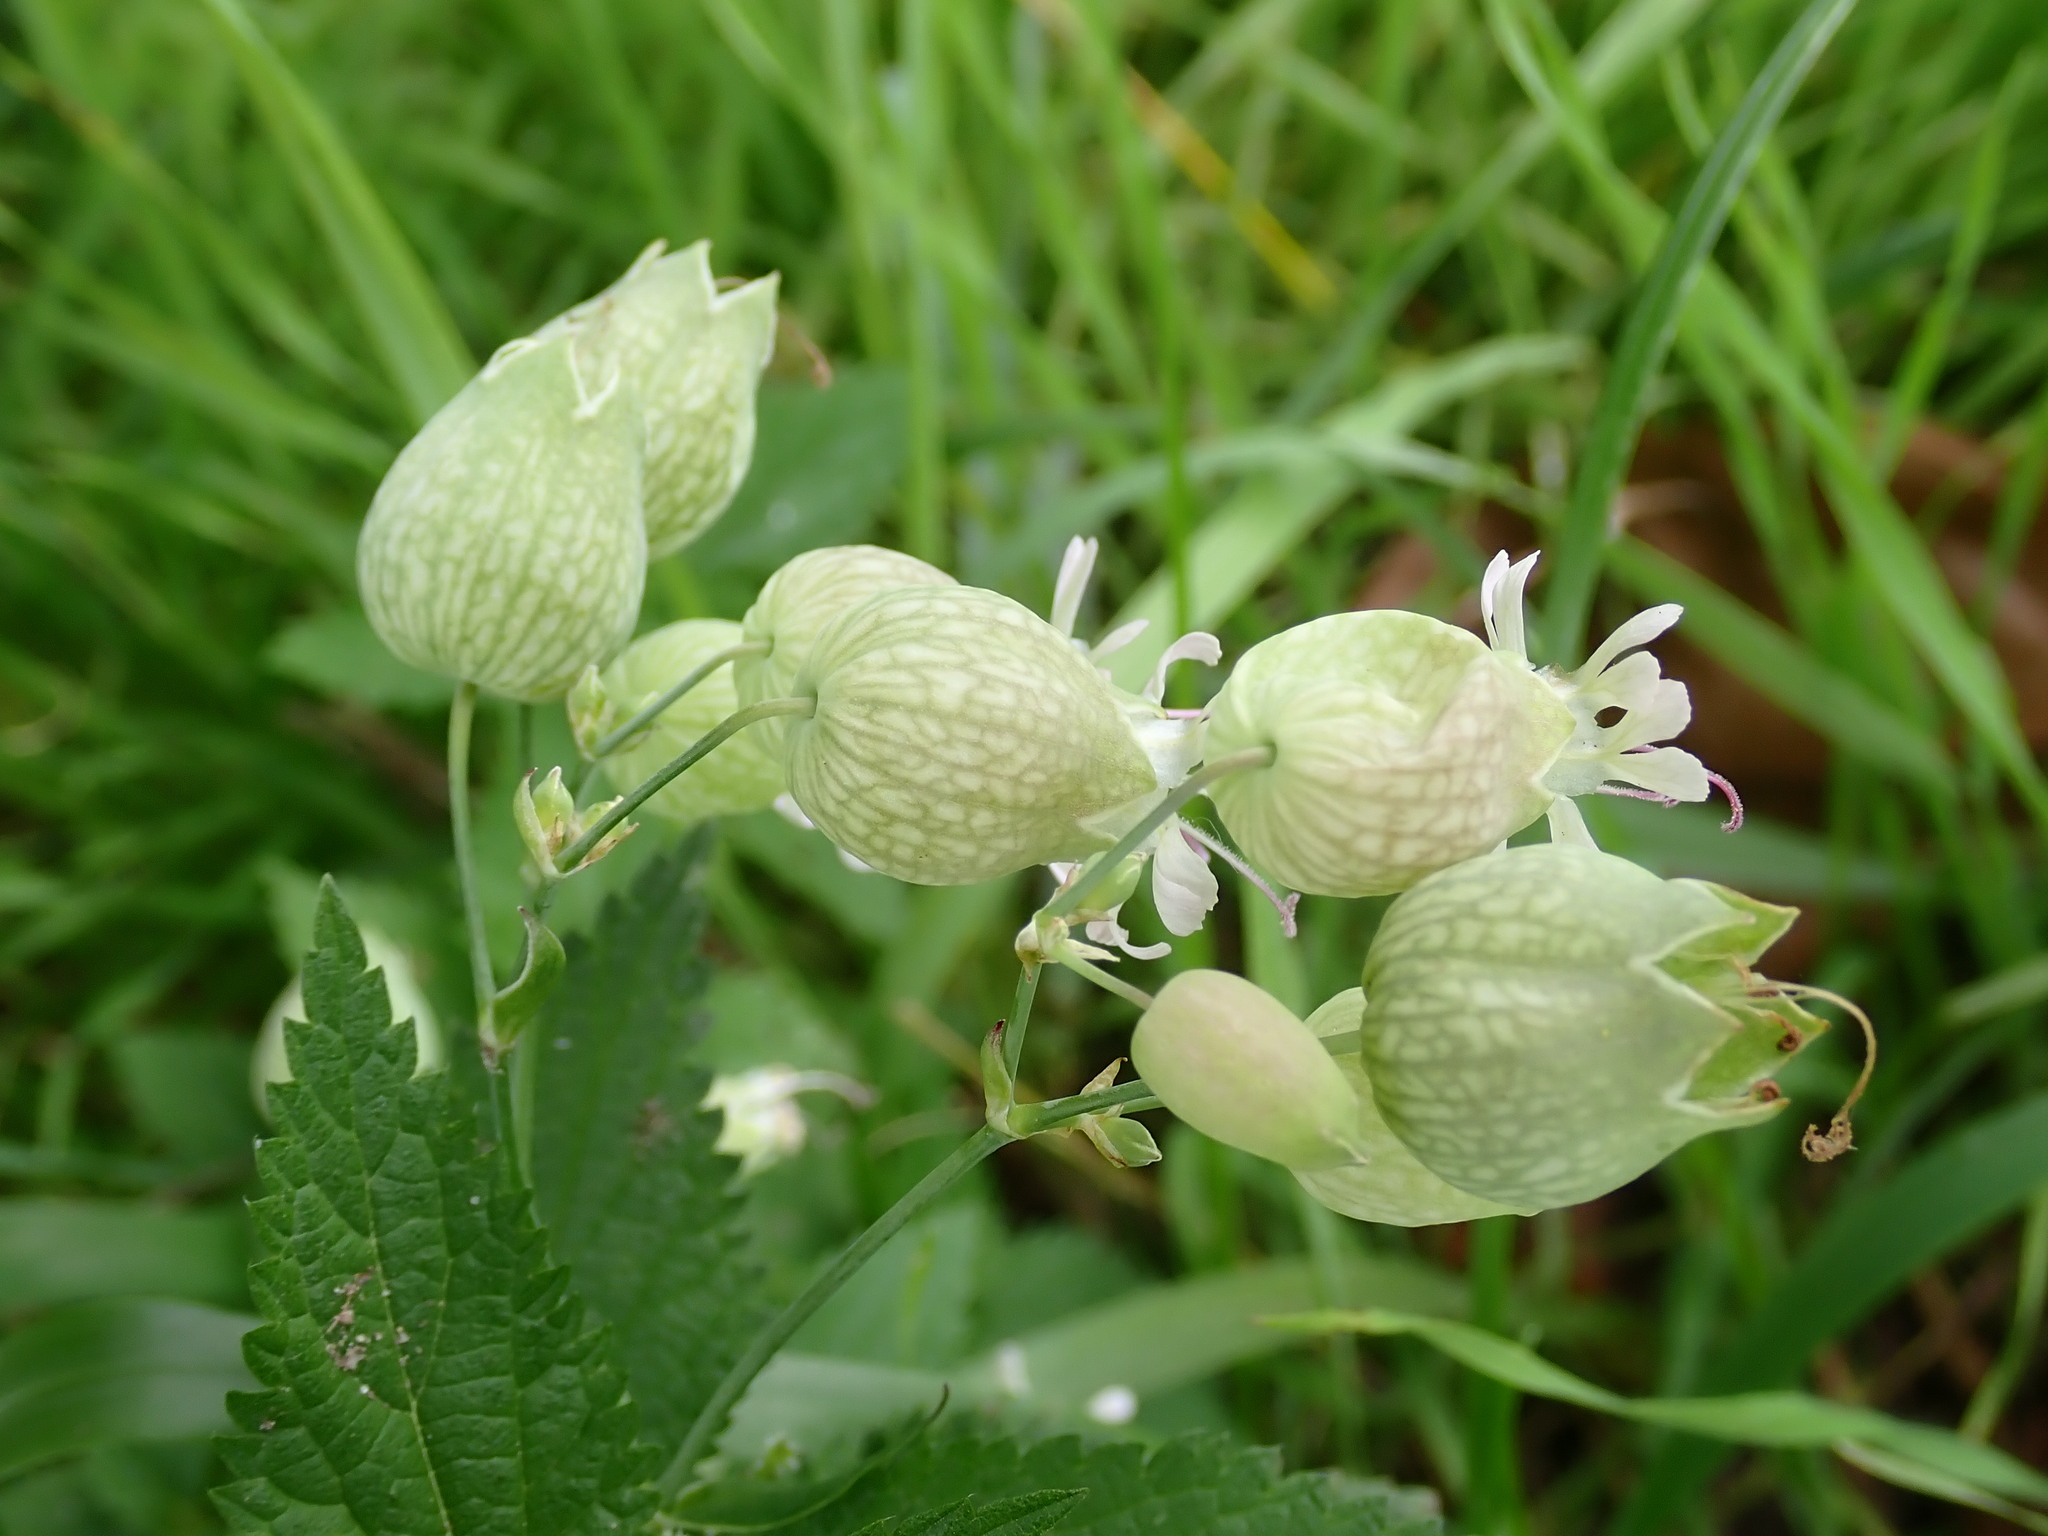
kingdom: Plantae
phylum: Tracheophyta
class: Magnoliopsida
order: Caryophyllales
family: Caryophyllaceae
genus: Silene
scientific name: Silene vulgaris
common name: Bladder campion
